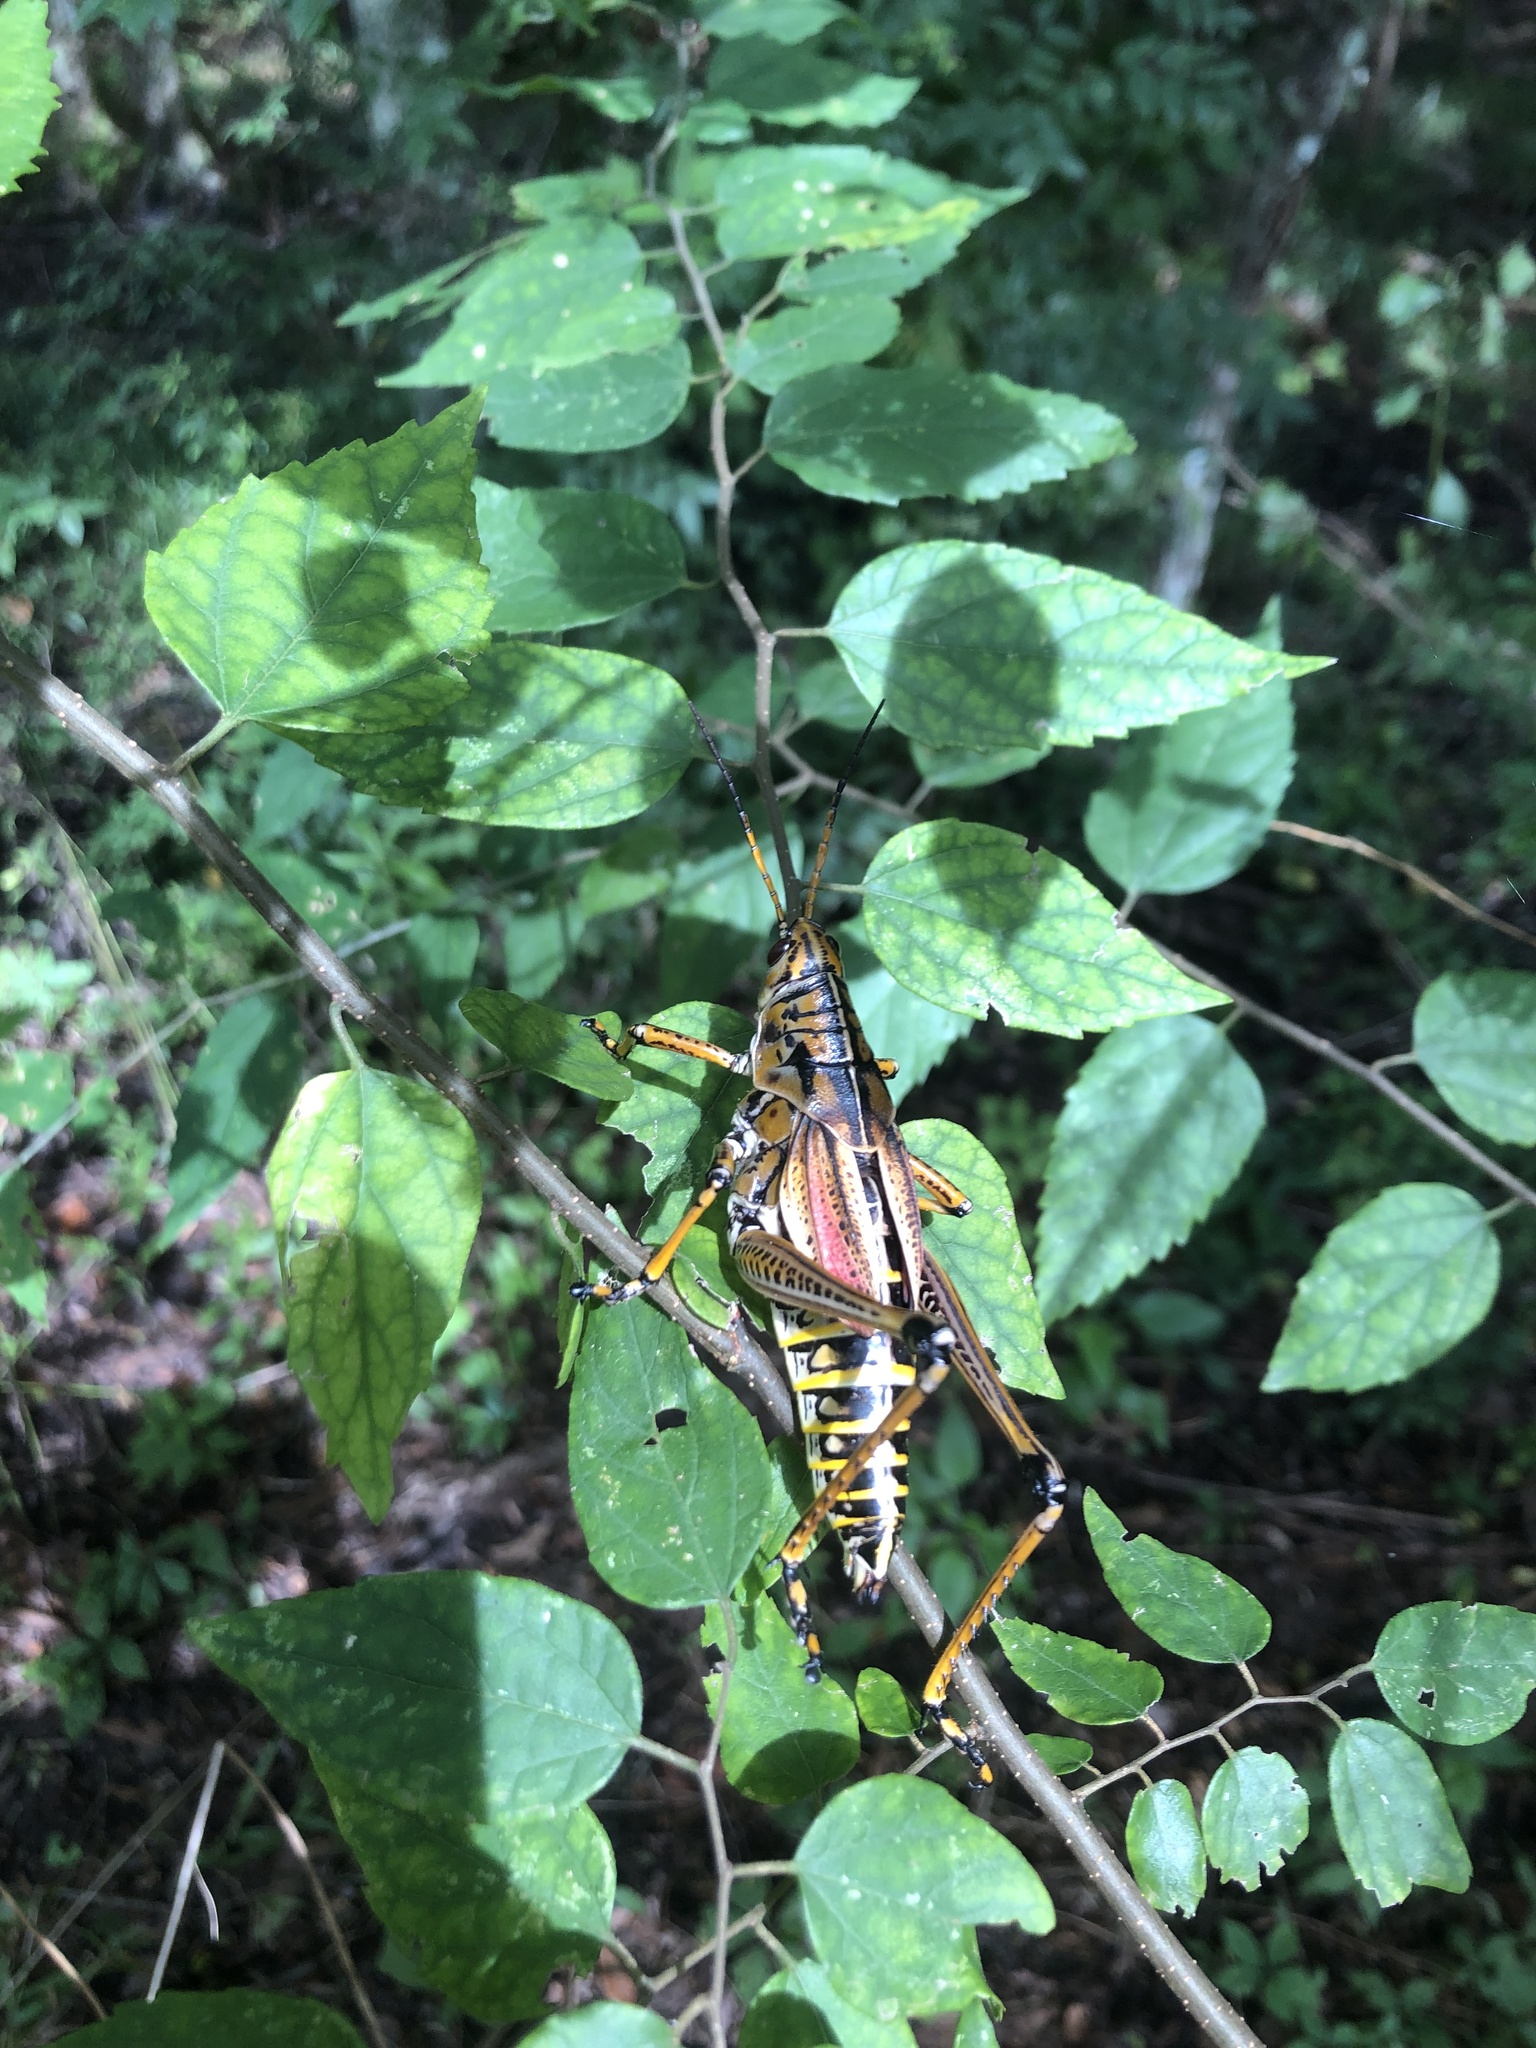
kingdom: Animalia
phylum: Arthropoda
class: Insecta
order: Orthoptera
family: Romaleidae
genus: Romalea
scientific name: Romalea microptera
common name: Eastern lubber grasshopper
